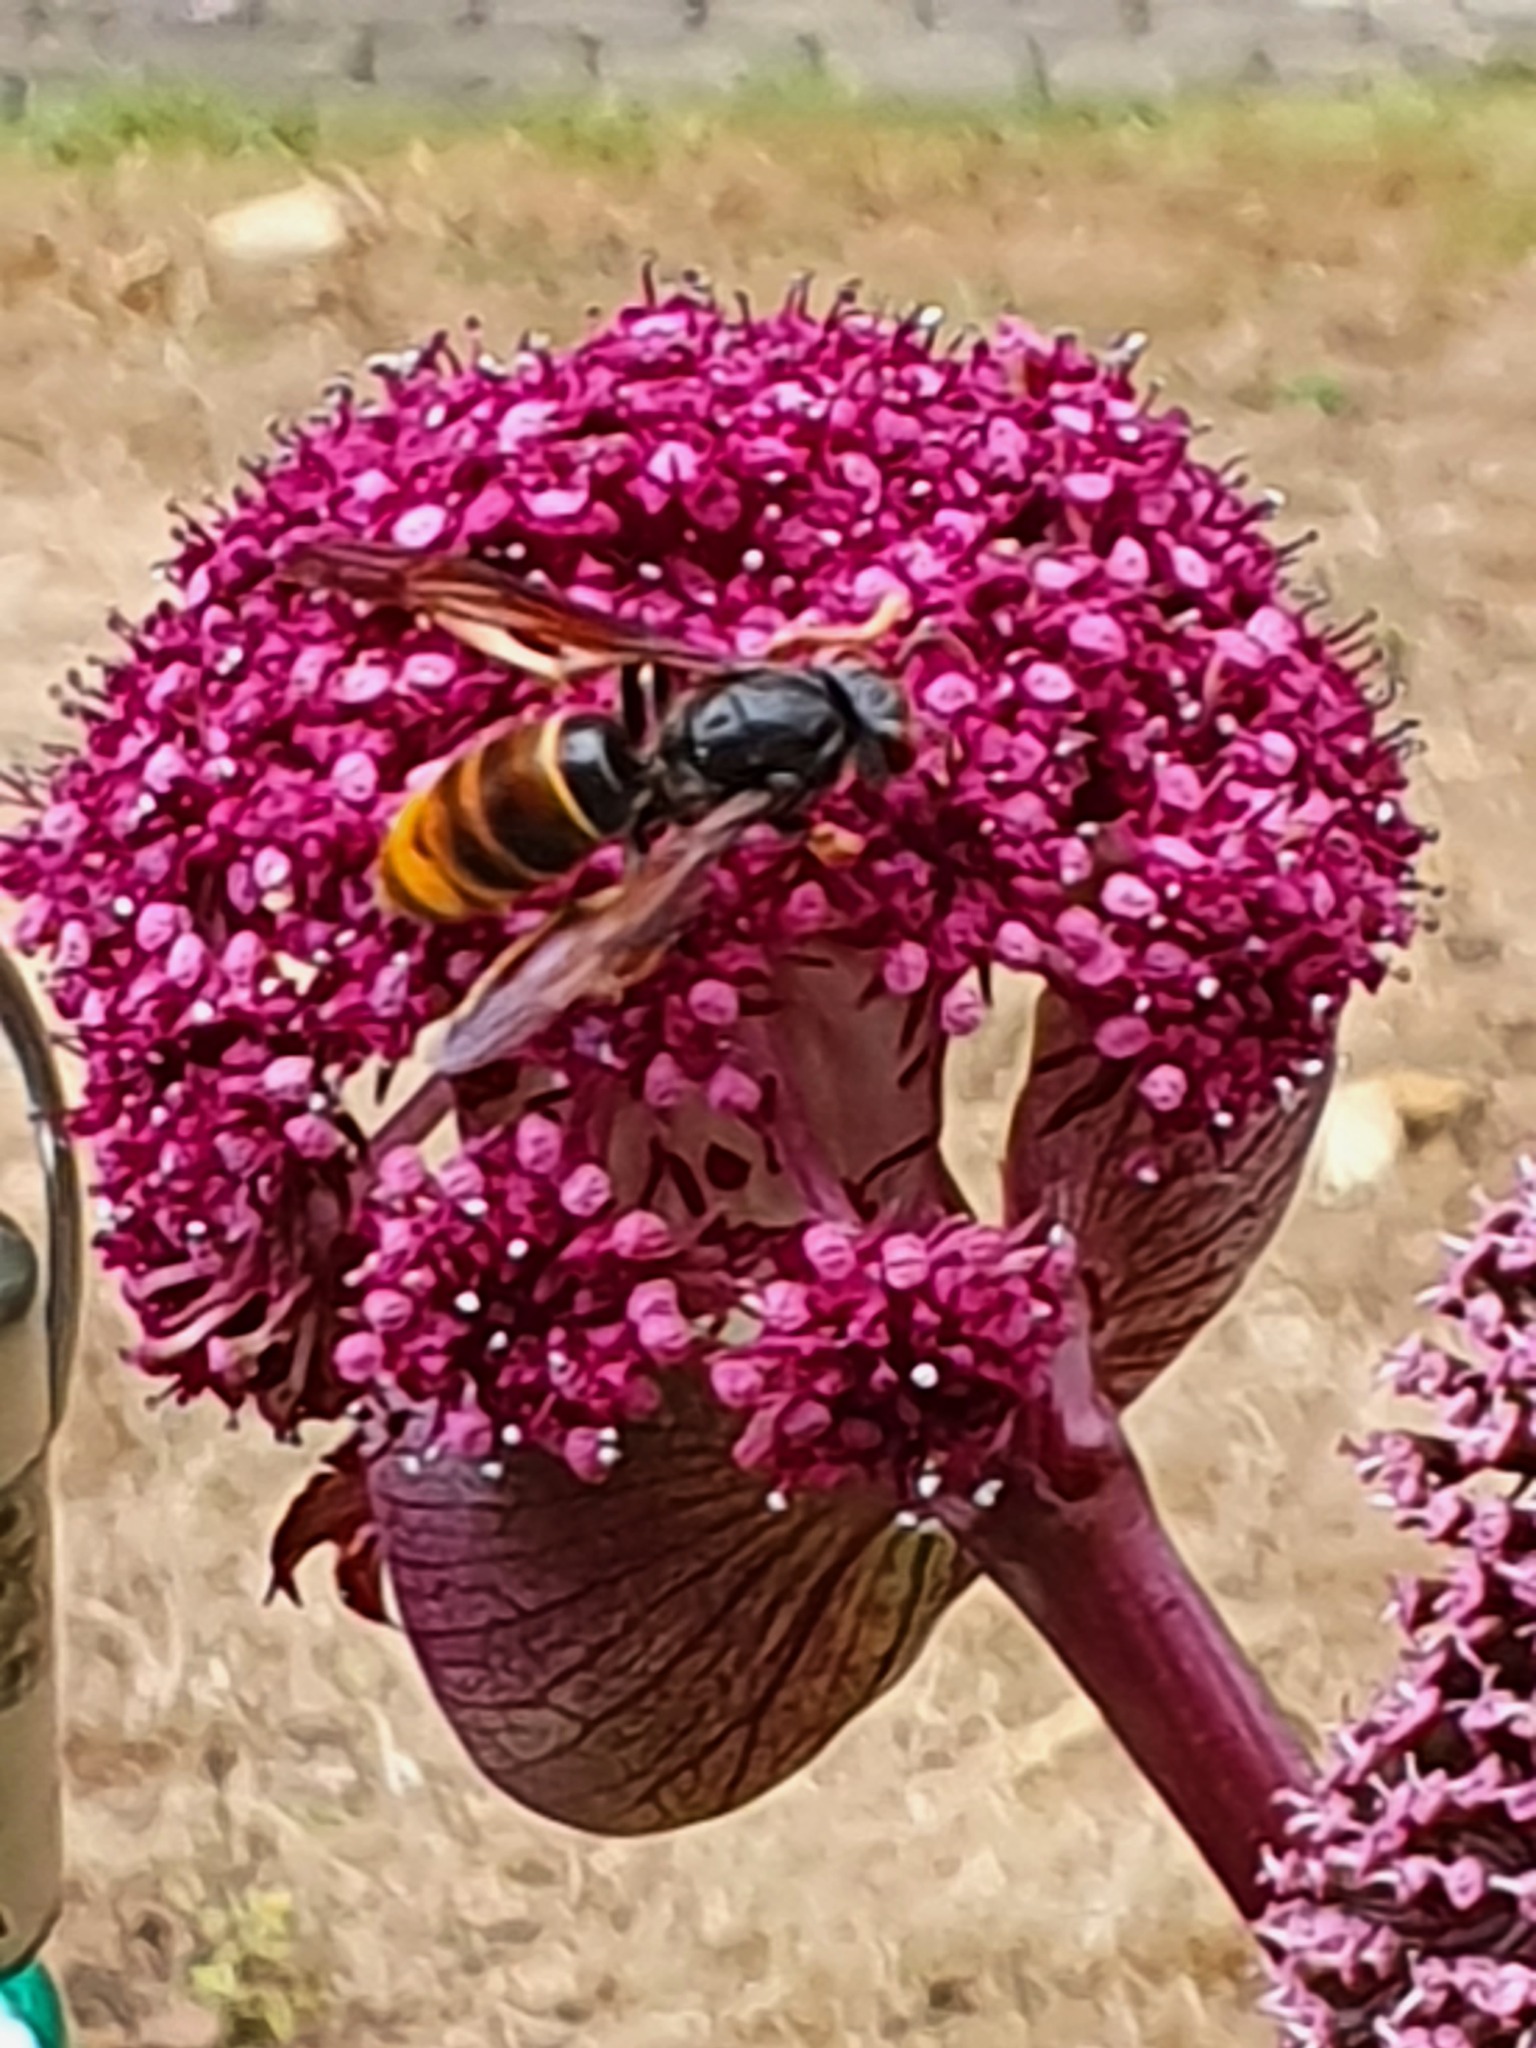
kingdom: Animalia
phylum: Arthropoda
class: Insecta
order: Hymenoptera
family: Vespidae
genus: Vespa
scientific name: Vespa velutina
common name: Asian hornet
